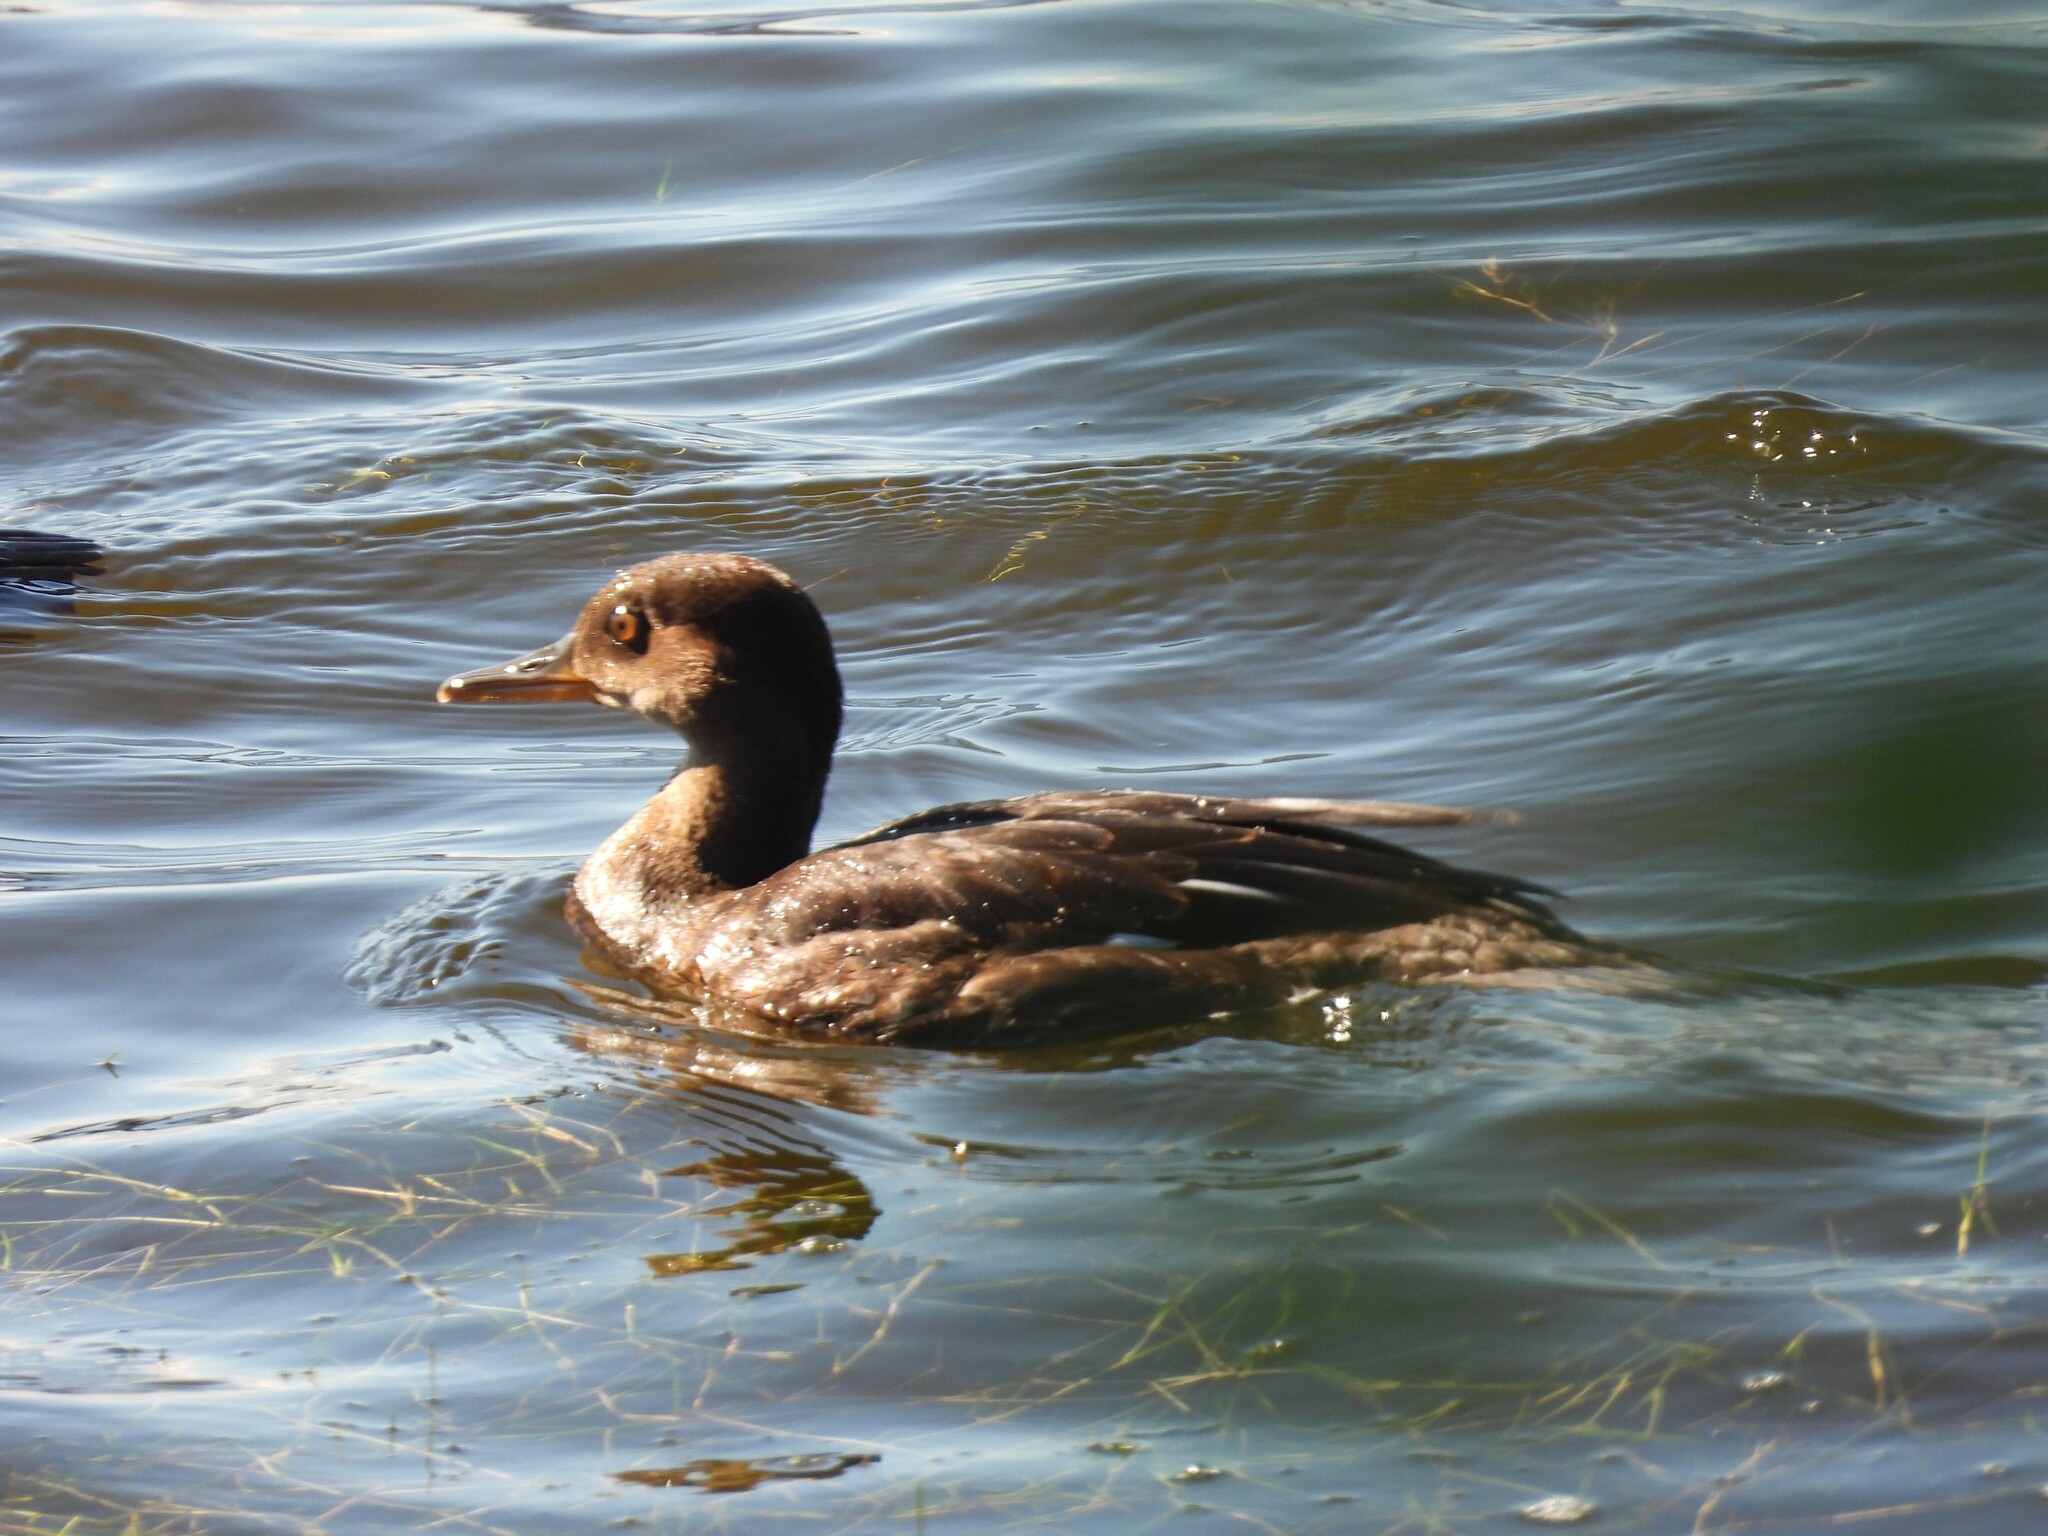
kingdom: Animalia
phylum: Chordata
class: Aves
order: Anseriformes
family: Anatidae
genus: Lophodytes
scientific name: Lophodytes cucullatus
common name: Hooded merganser
